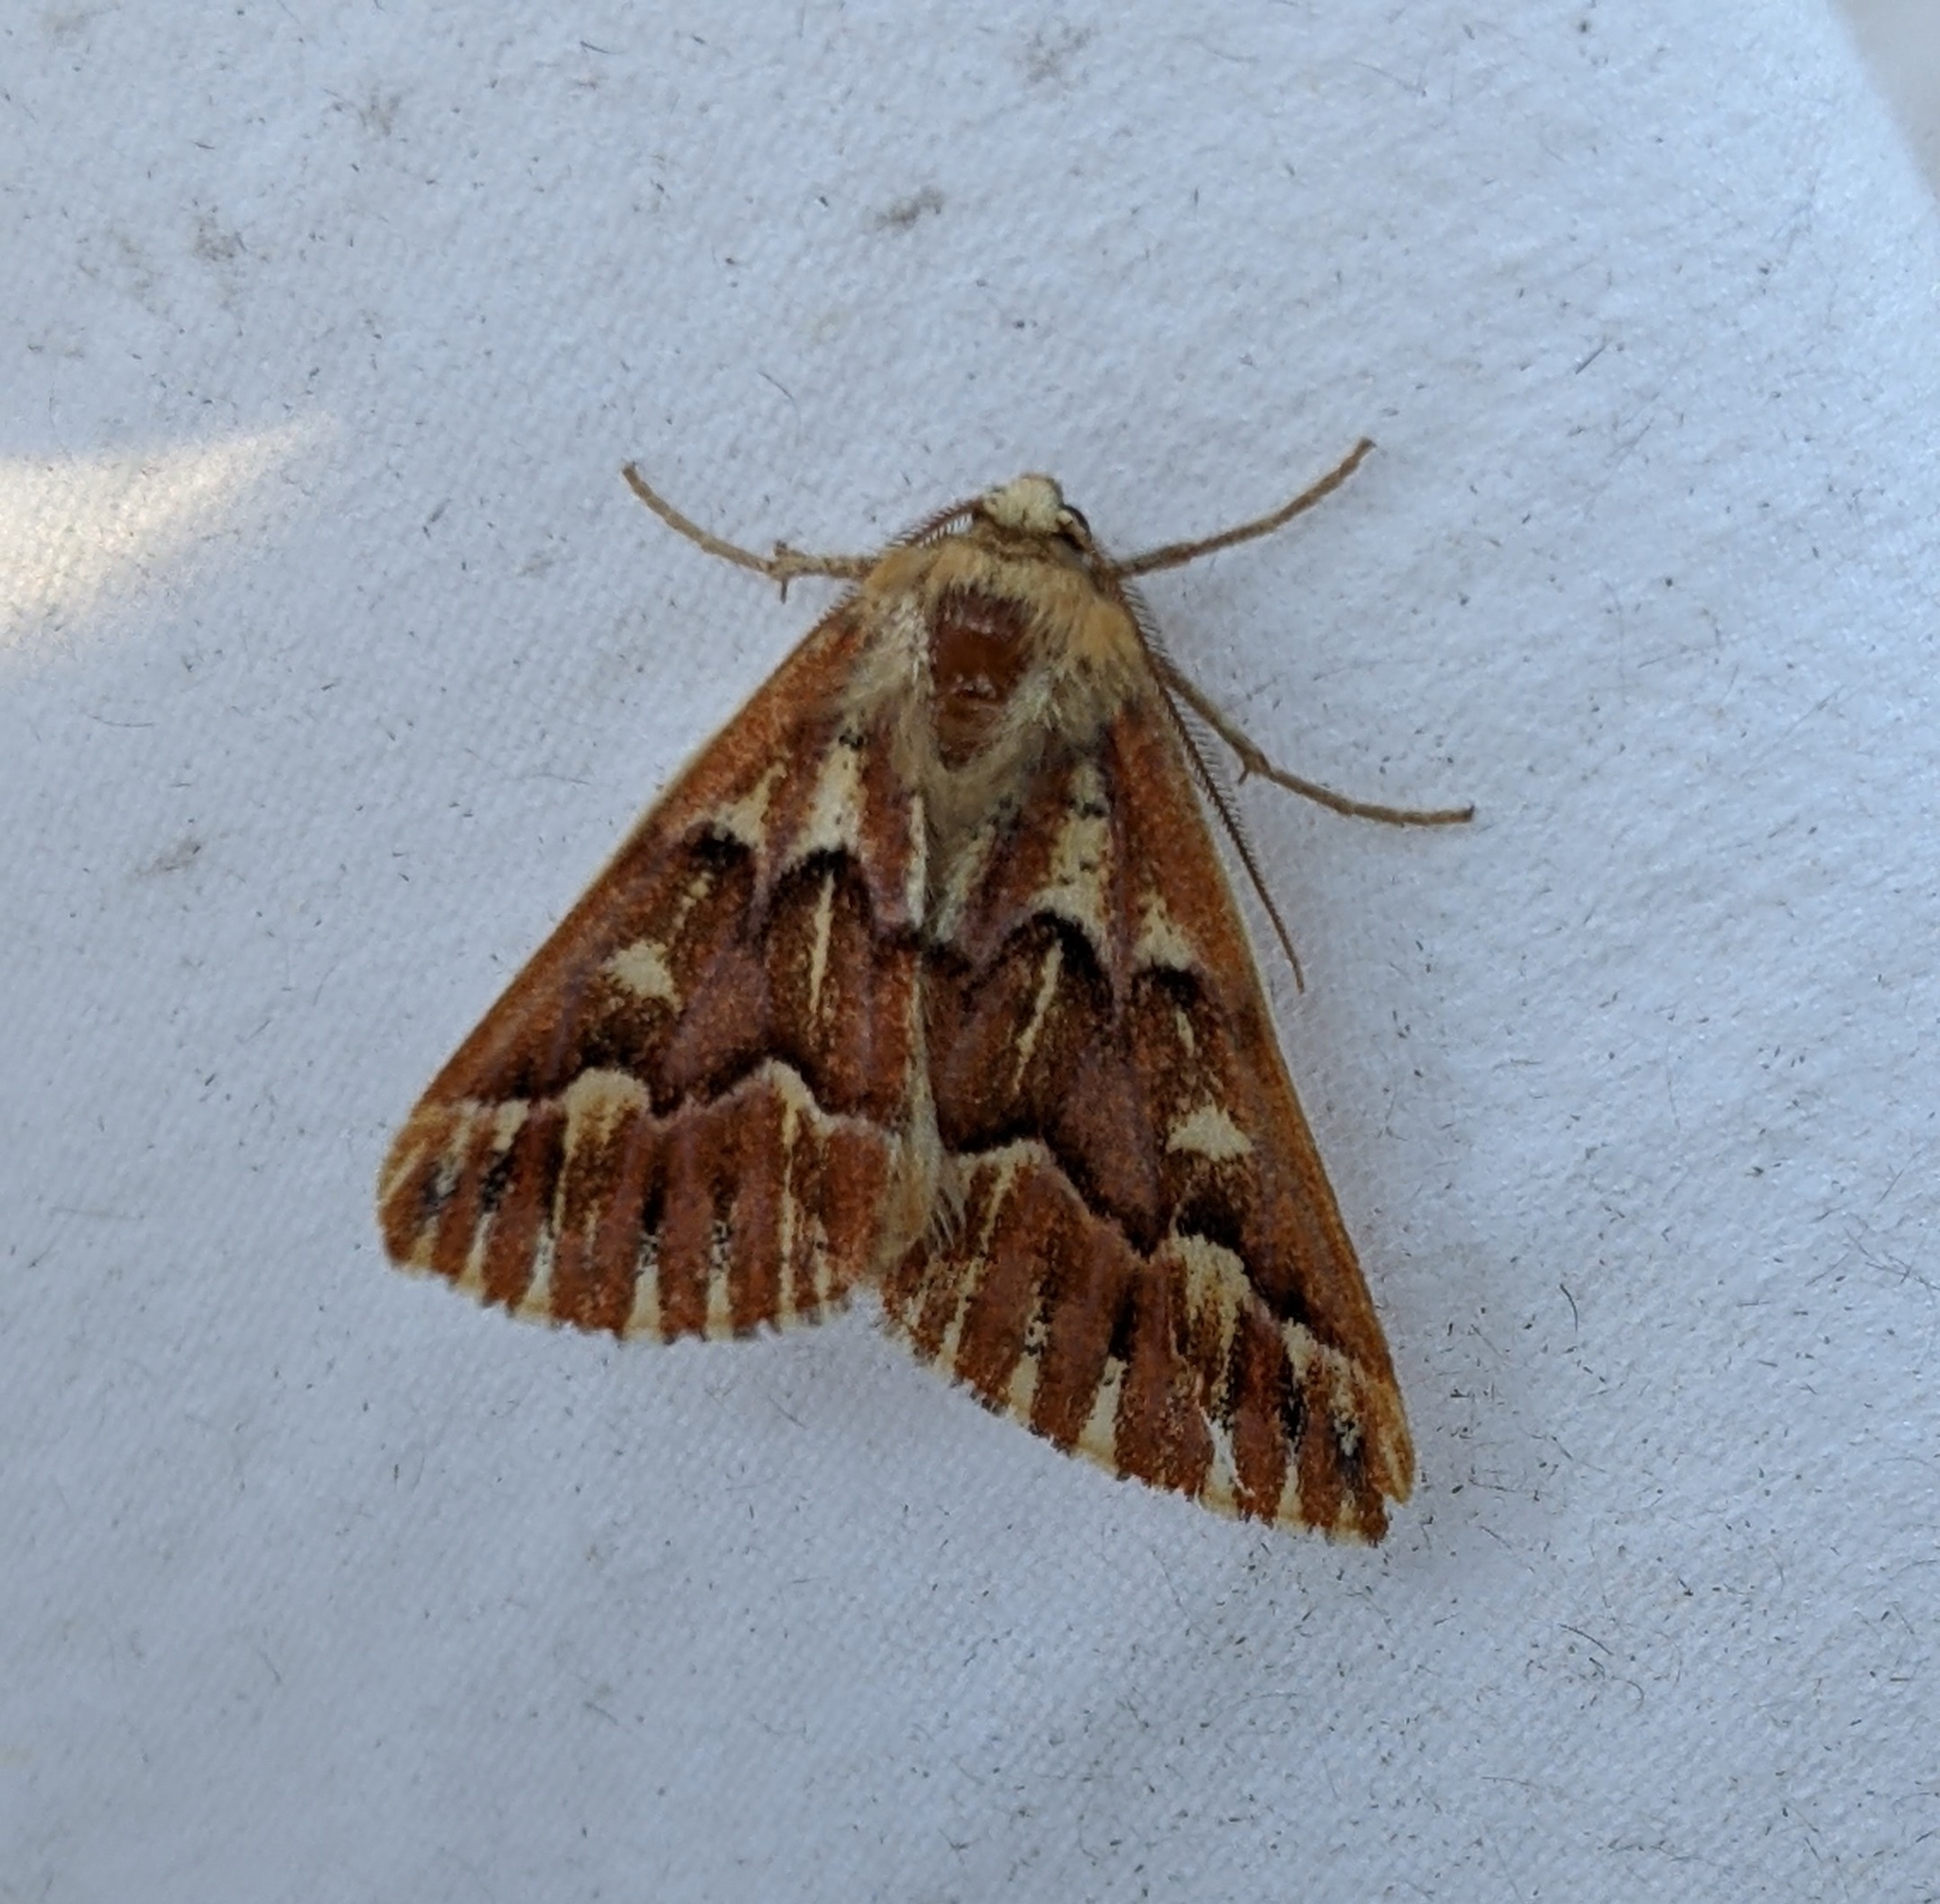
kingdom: Animalia
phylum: Arthropoda
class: Insecta
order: Lepidoptera
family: Geometridae
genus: Caripeta
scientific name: Caripeta aequaliaria
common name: Red girdle moth
